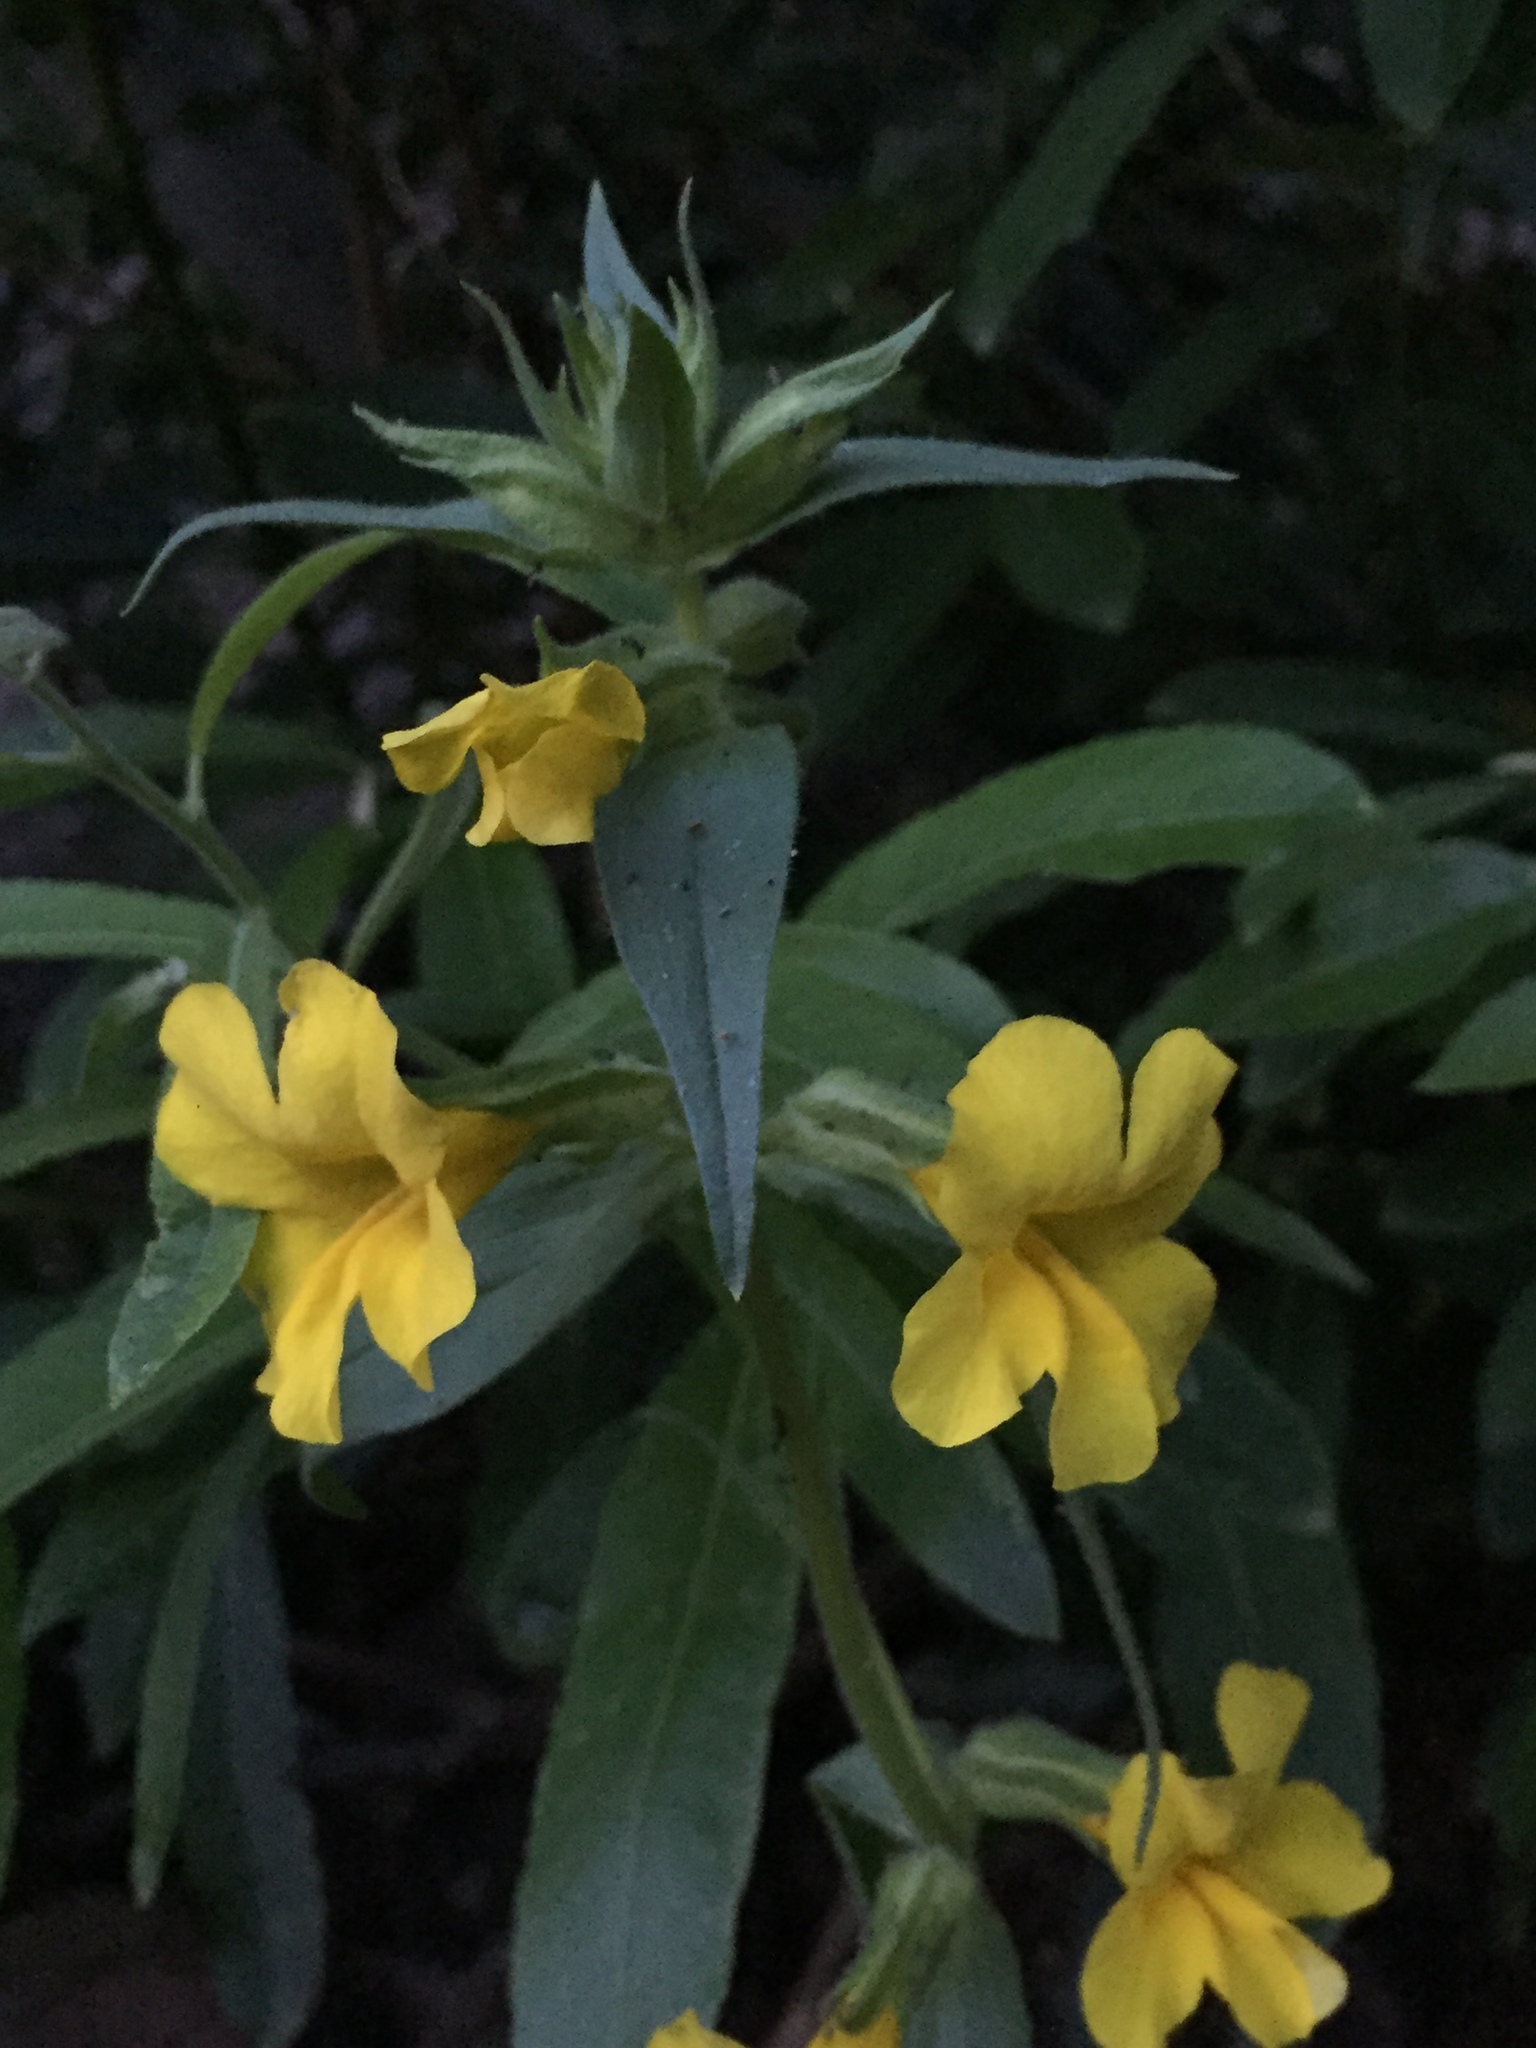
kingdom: Plantae
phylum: Tracheophyta
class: Magnoliopsida
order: Lamiales
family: Phrymaceae
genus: Diplacus
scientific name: Diplacus brevipes
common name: Wide-throat yellow monkey-flower
